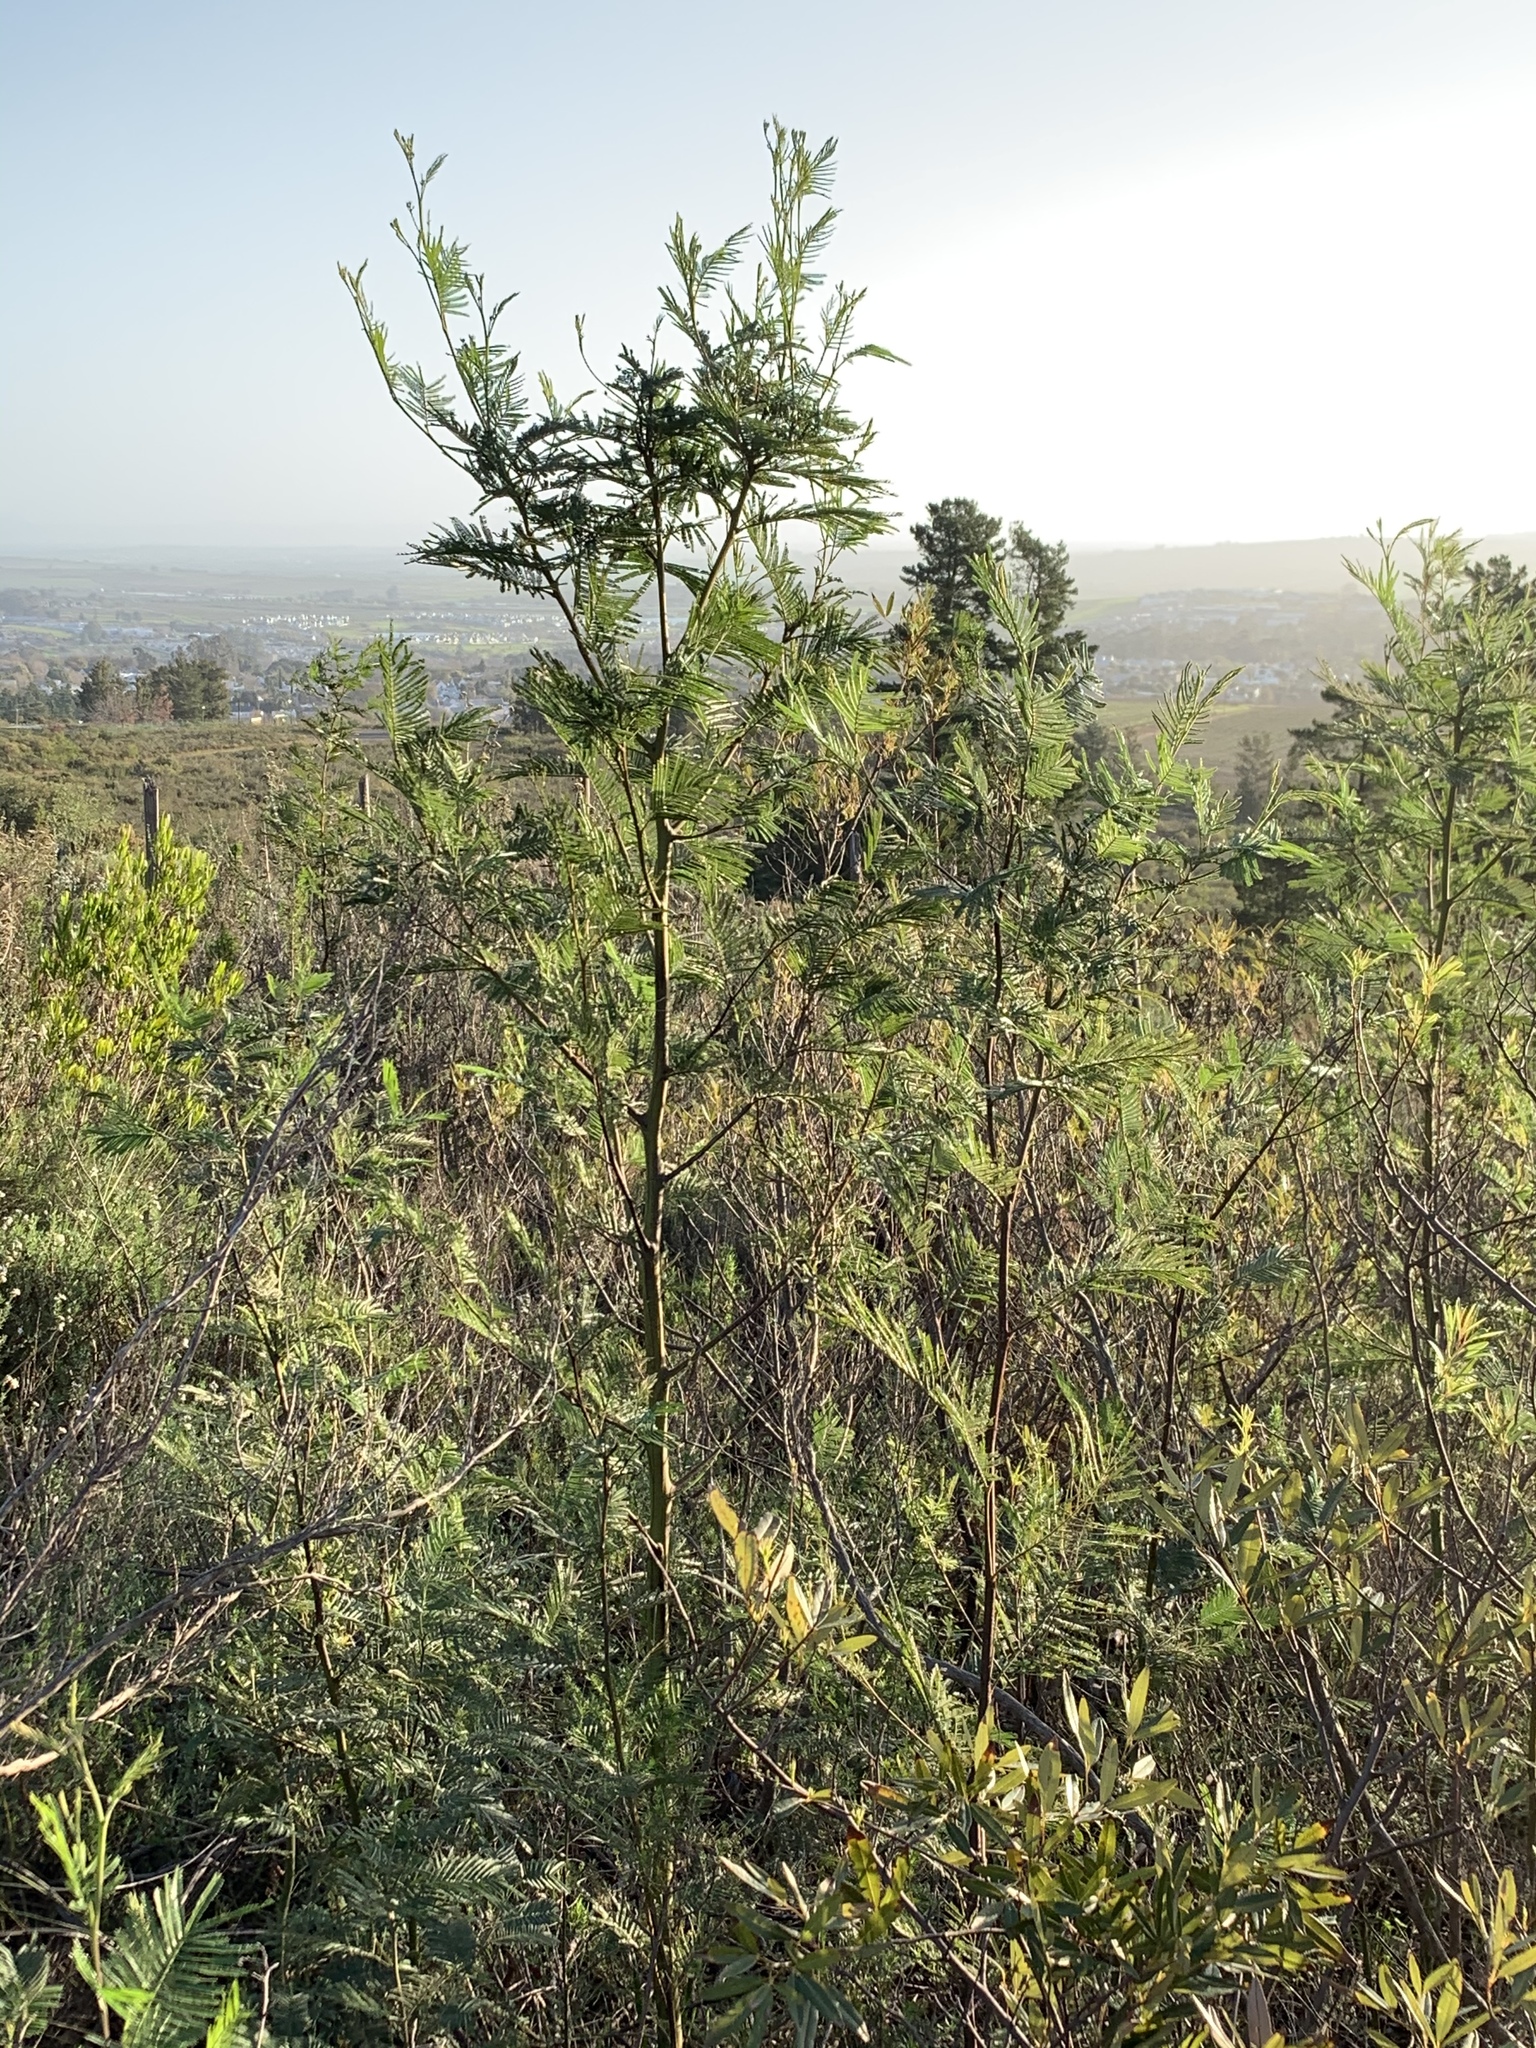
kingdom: Plantae
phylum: Tracheophyta
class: Magnoliopsida
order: Fabales
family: Fabaceae
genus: Acacia
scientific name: Acacia mearnsii
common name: Black wattle
